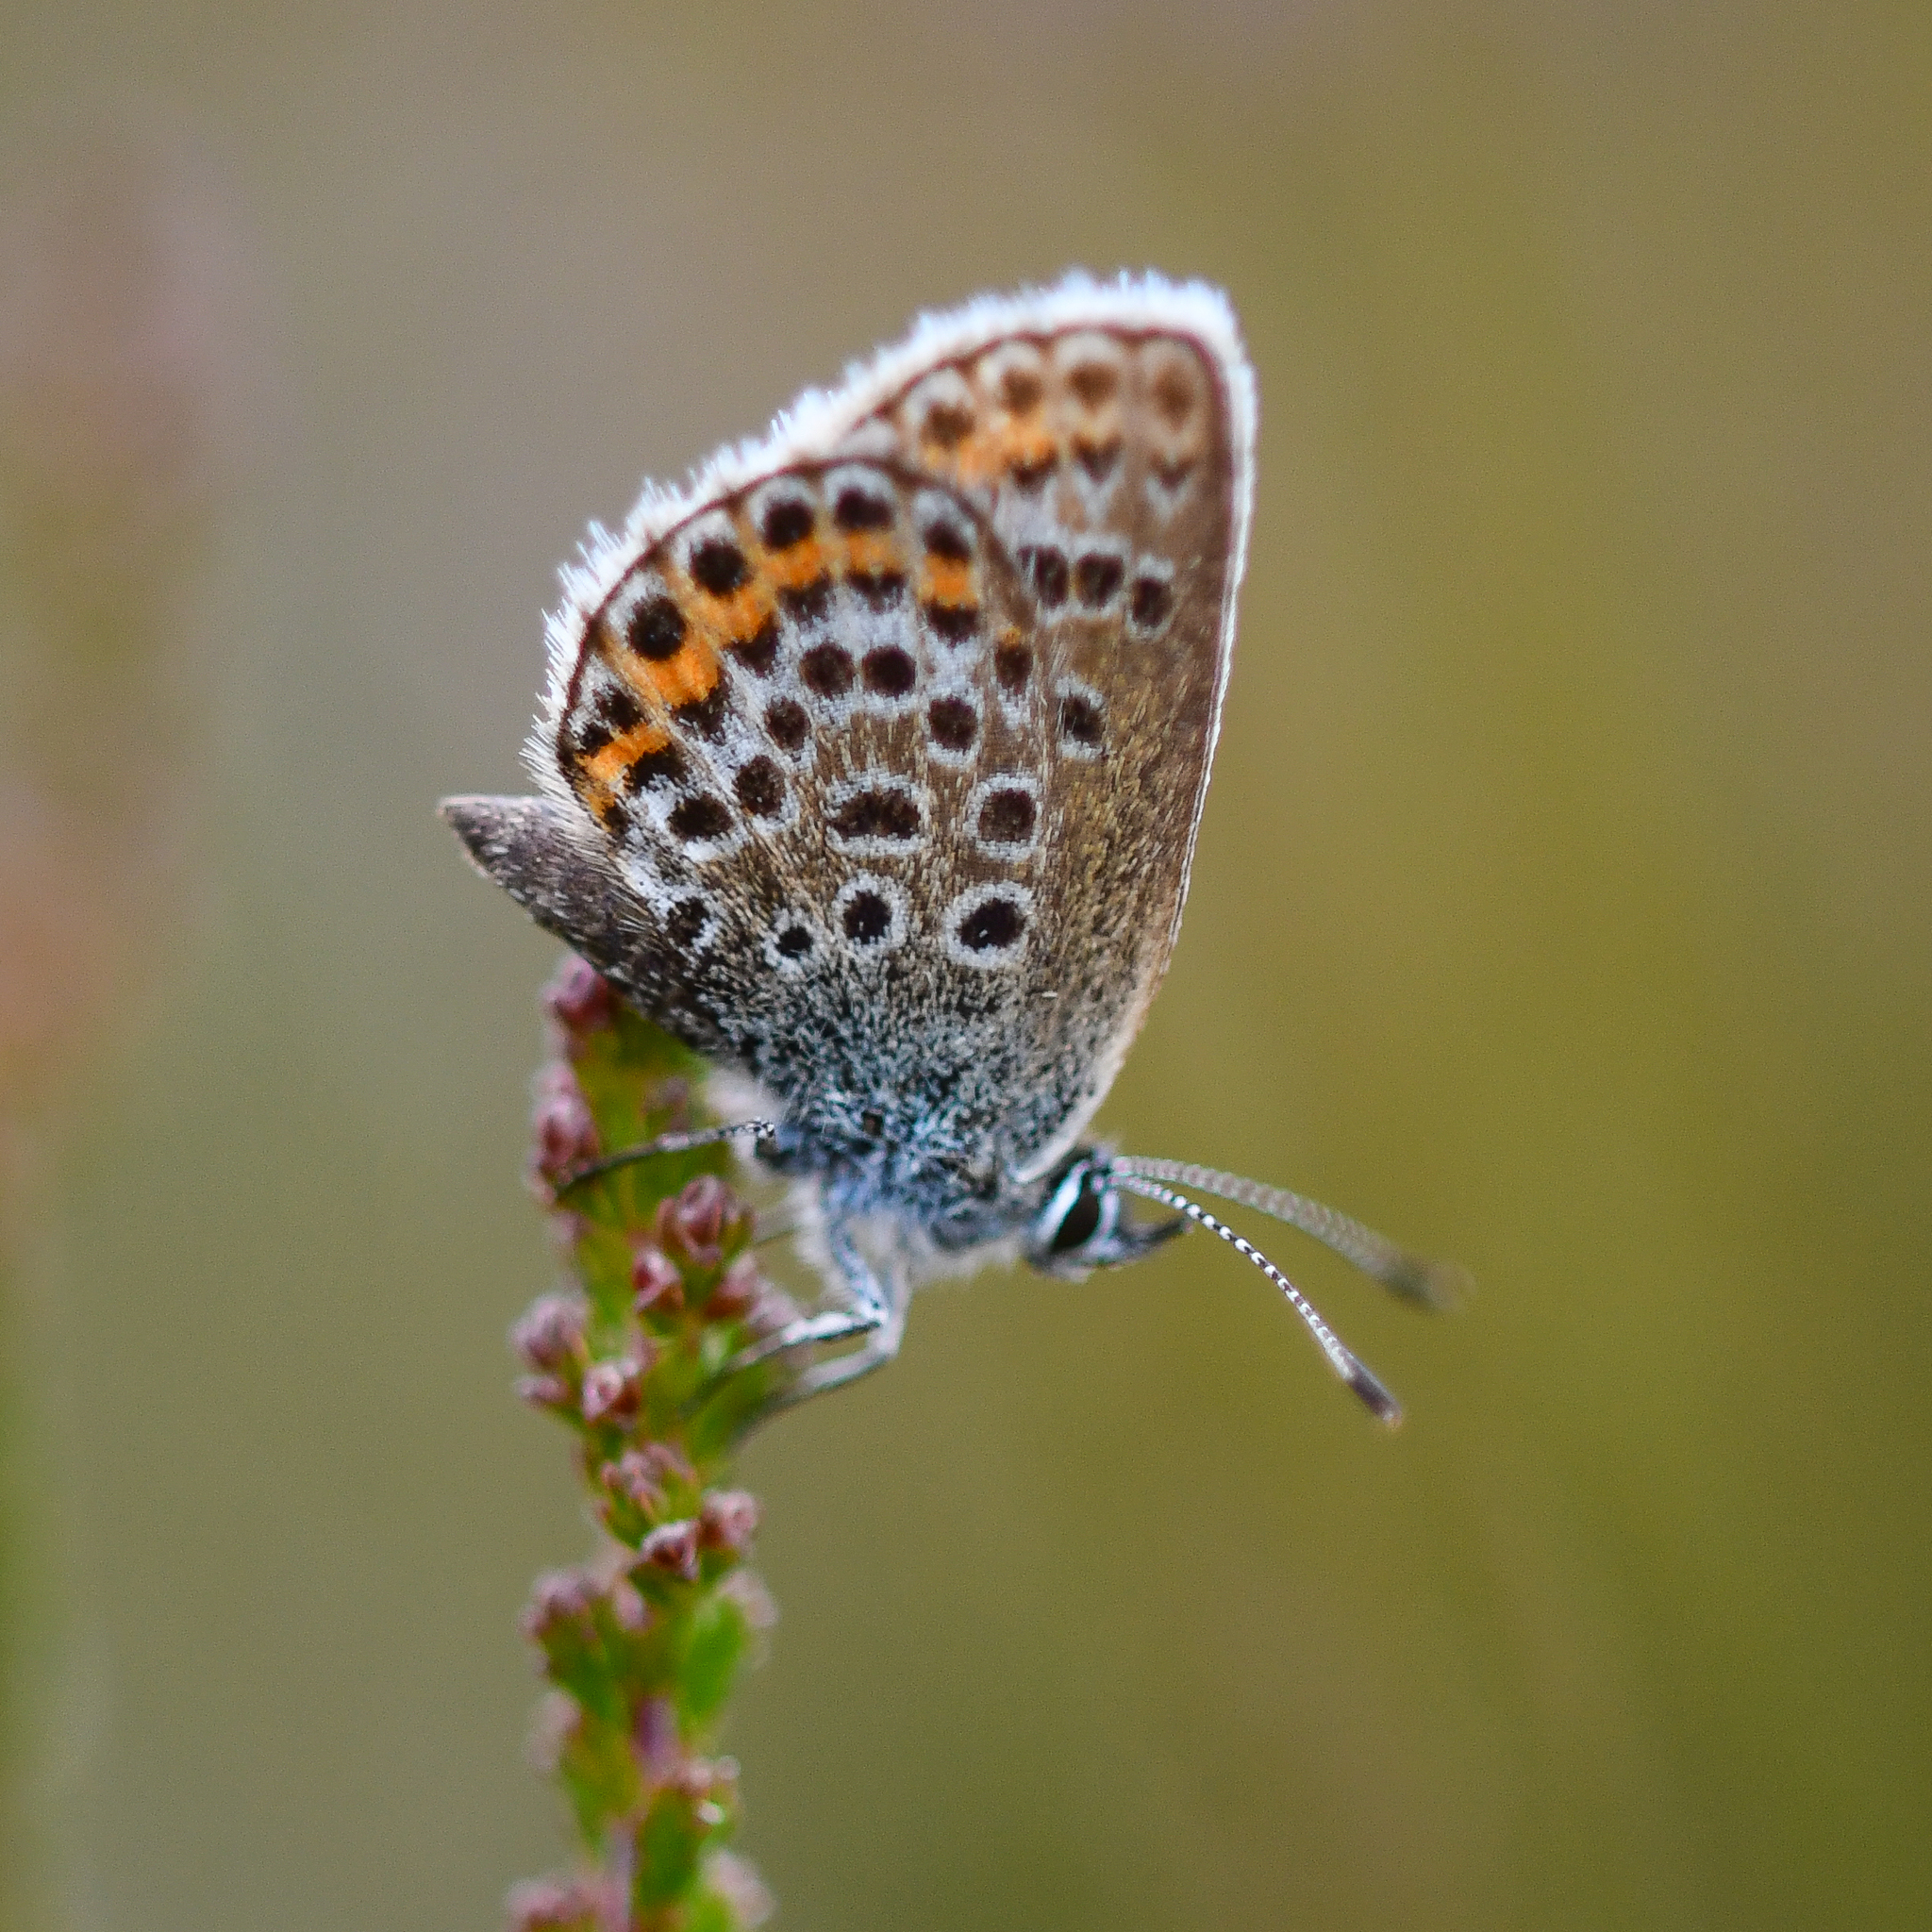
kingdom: Animalia
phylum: Arthropoda
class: Insecta
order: Lepidoptera
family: Lycaenidae
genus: Plebejus
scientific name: Plebejus argus
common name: Silver-studded blue
